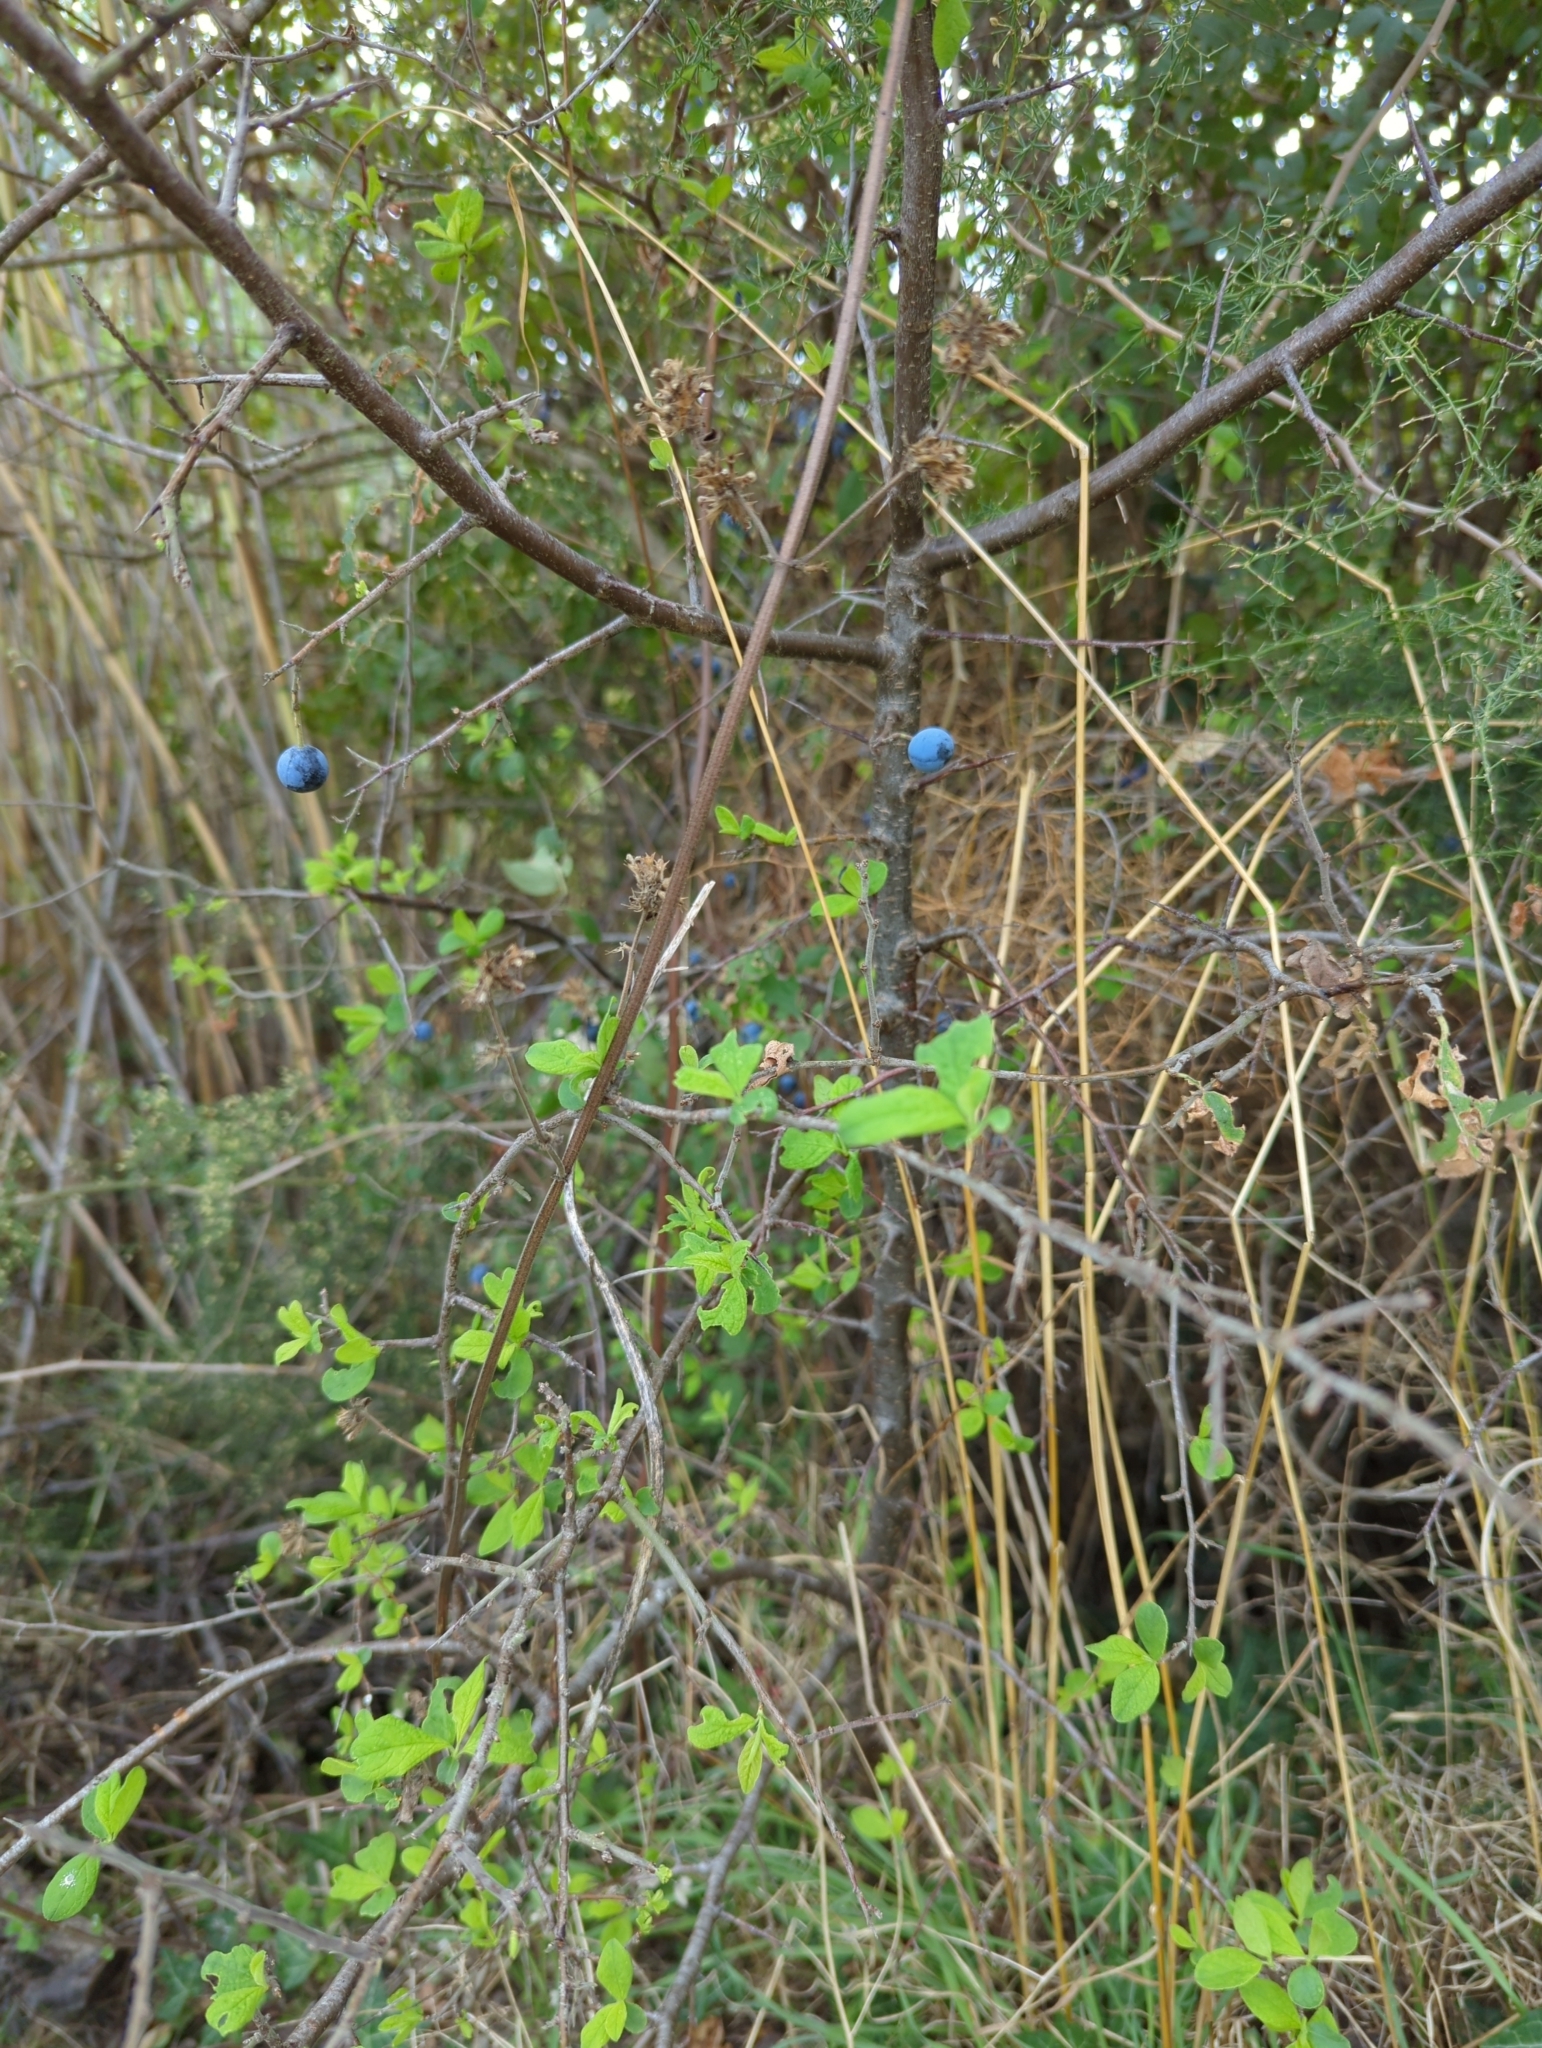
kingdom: Plantae
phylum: Tracheophyta
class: Magnoliopsida
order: Rosales
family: Rosaceae
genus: Prunus
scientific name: Prunus spinosa
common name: Blackthorn
